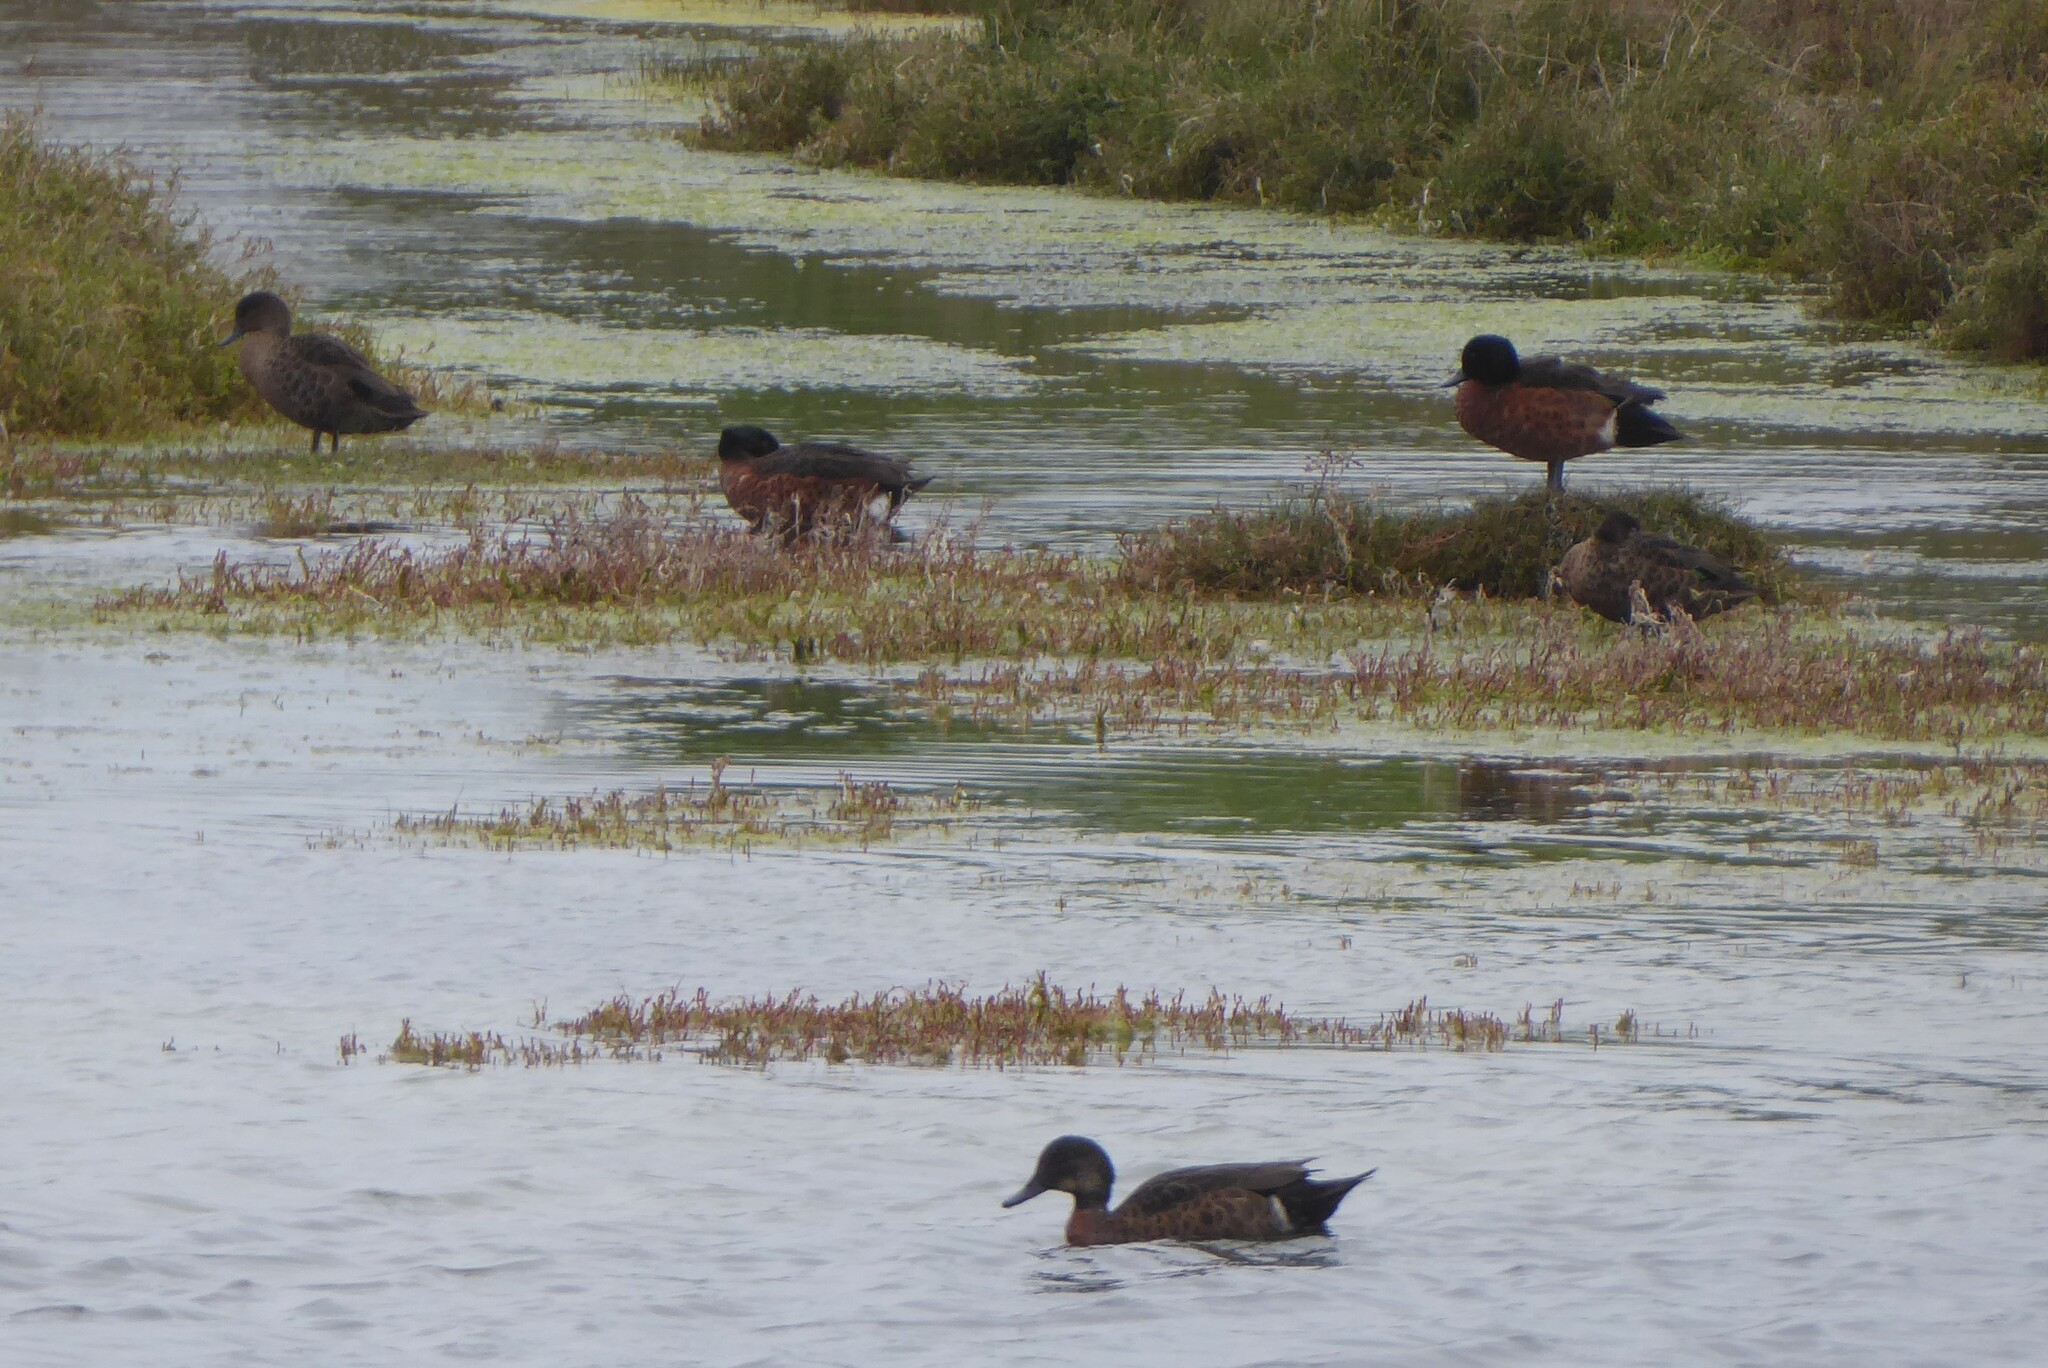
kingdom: Animalia
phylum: Chordata
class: Aves
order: Anseriformes
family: Anatidae
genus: Anas
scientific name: Anas castanea
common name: Chestnut teal
